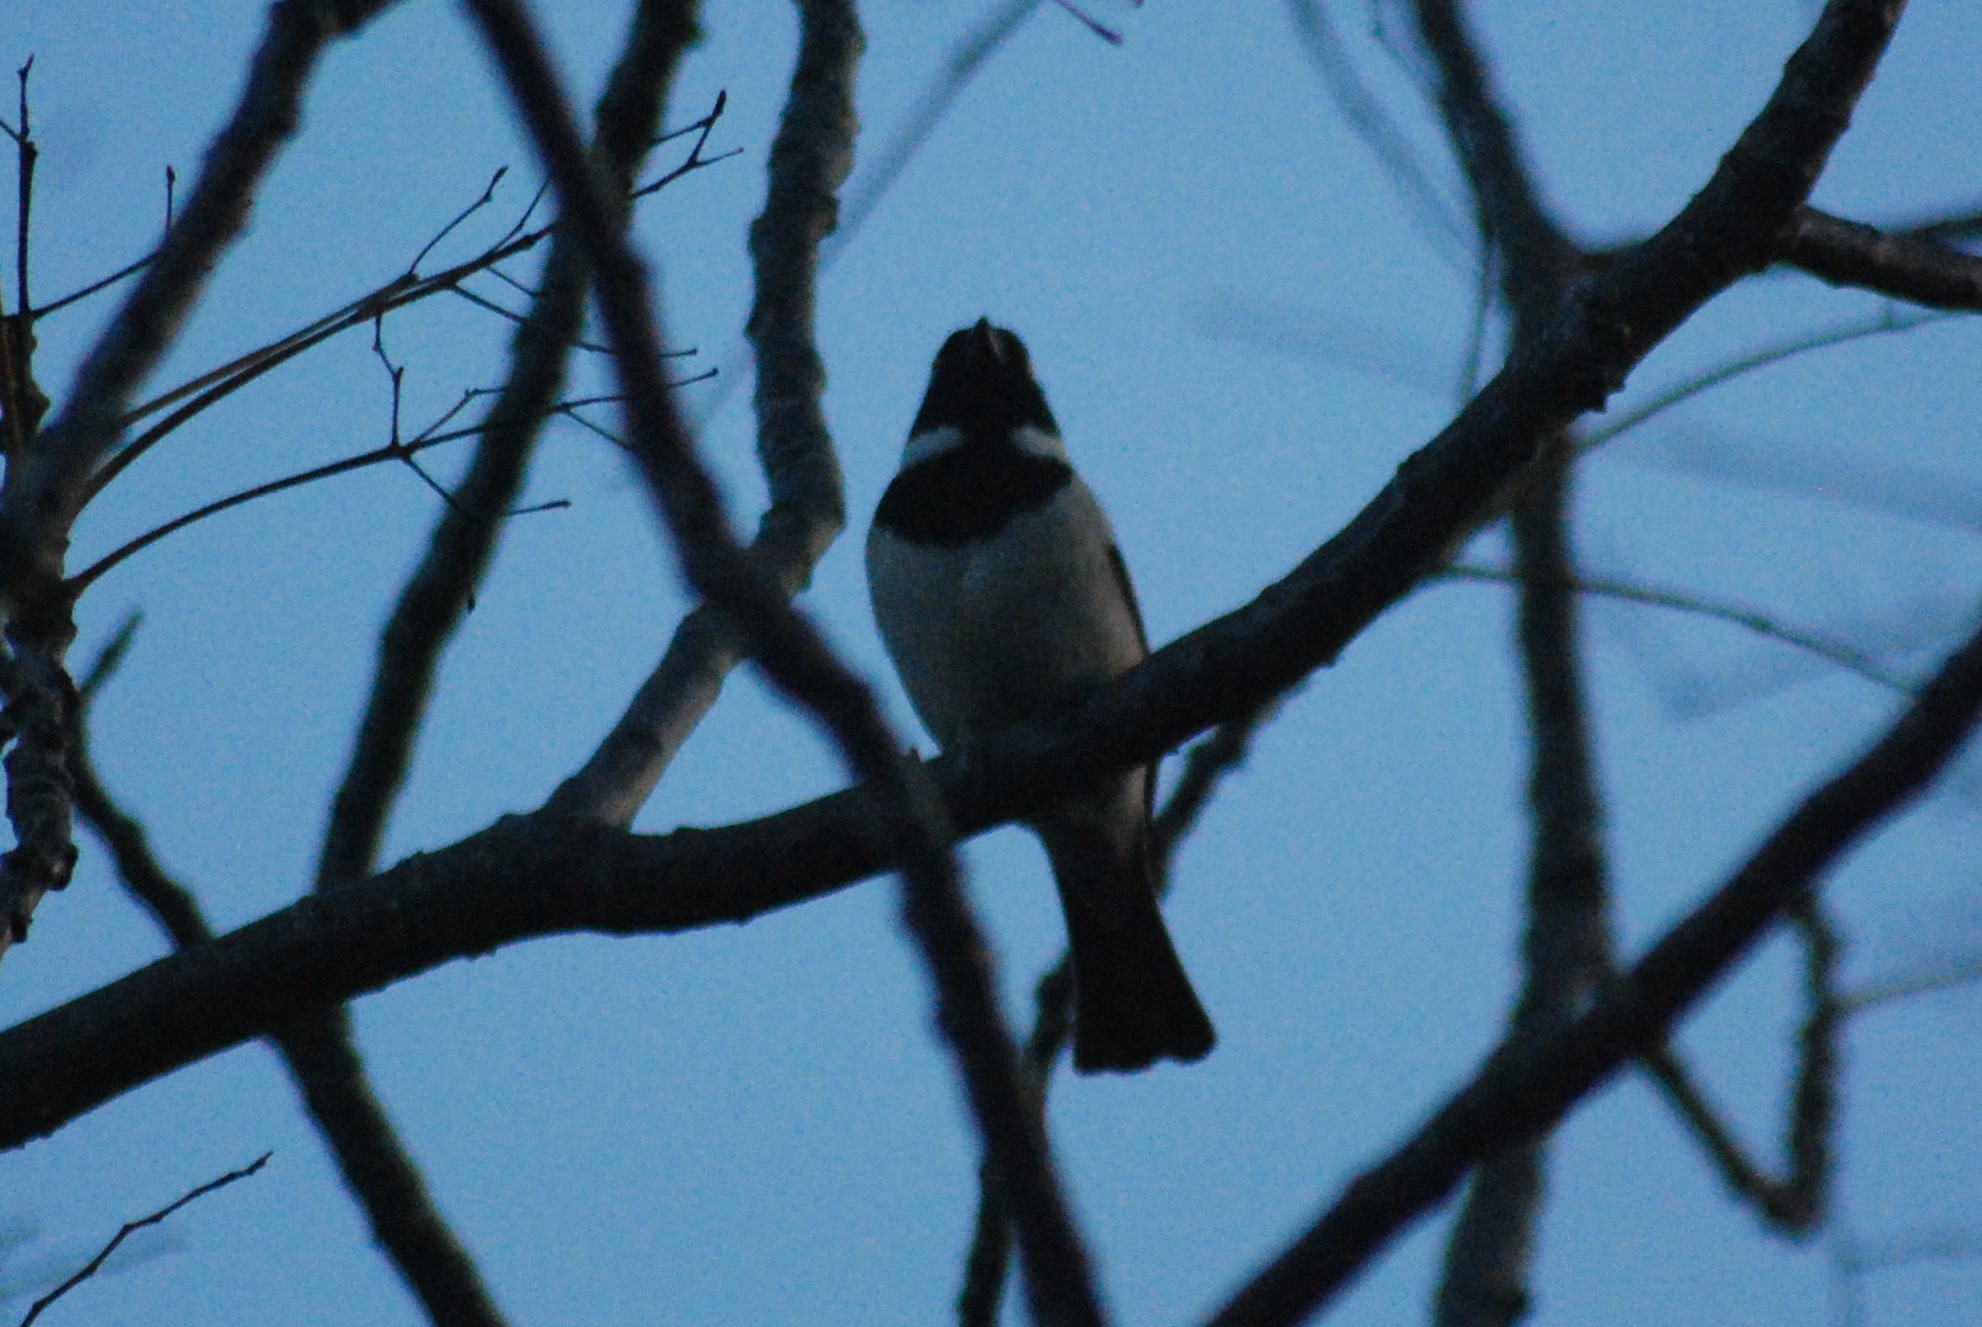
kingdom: Animalia
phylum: Chordata
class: Aves
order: Passeriformes
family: Passeridae
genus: Passer
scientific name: Passer melanurus
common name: Cape sparrow
